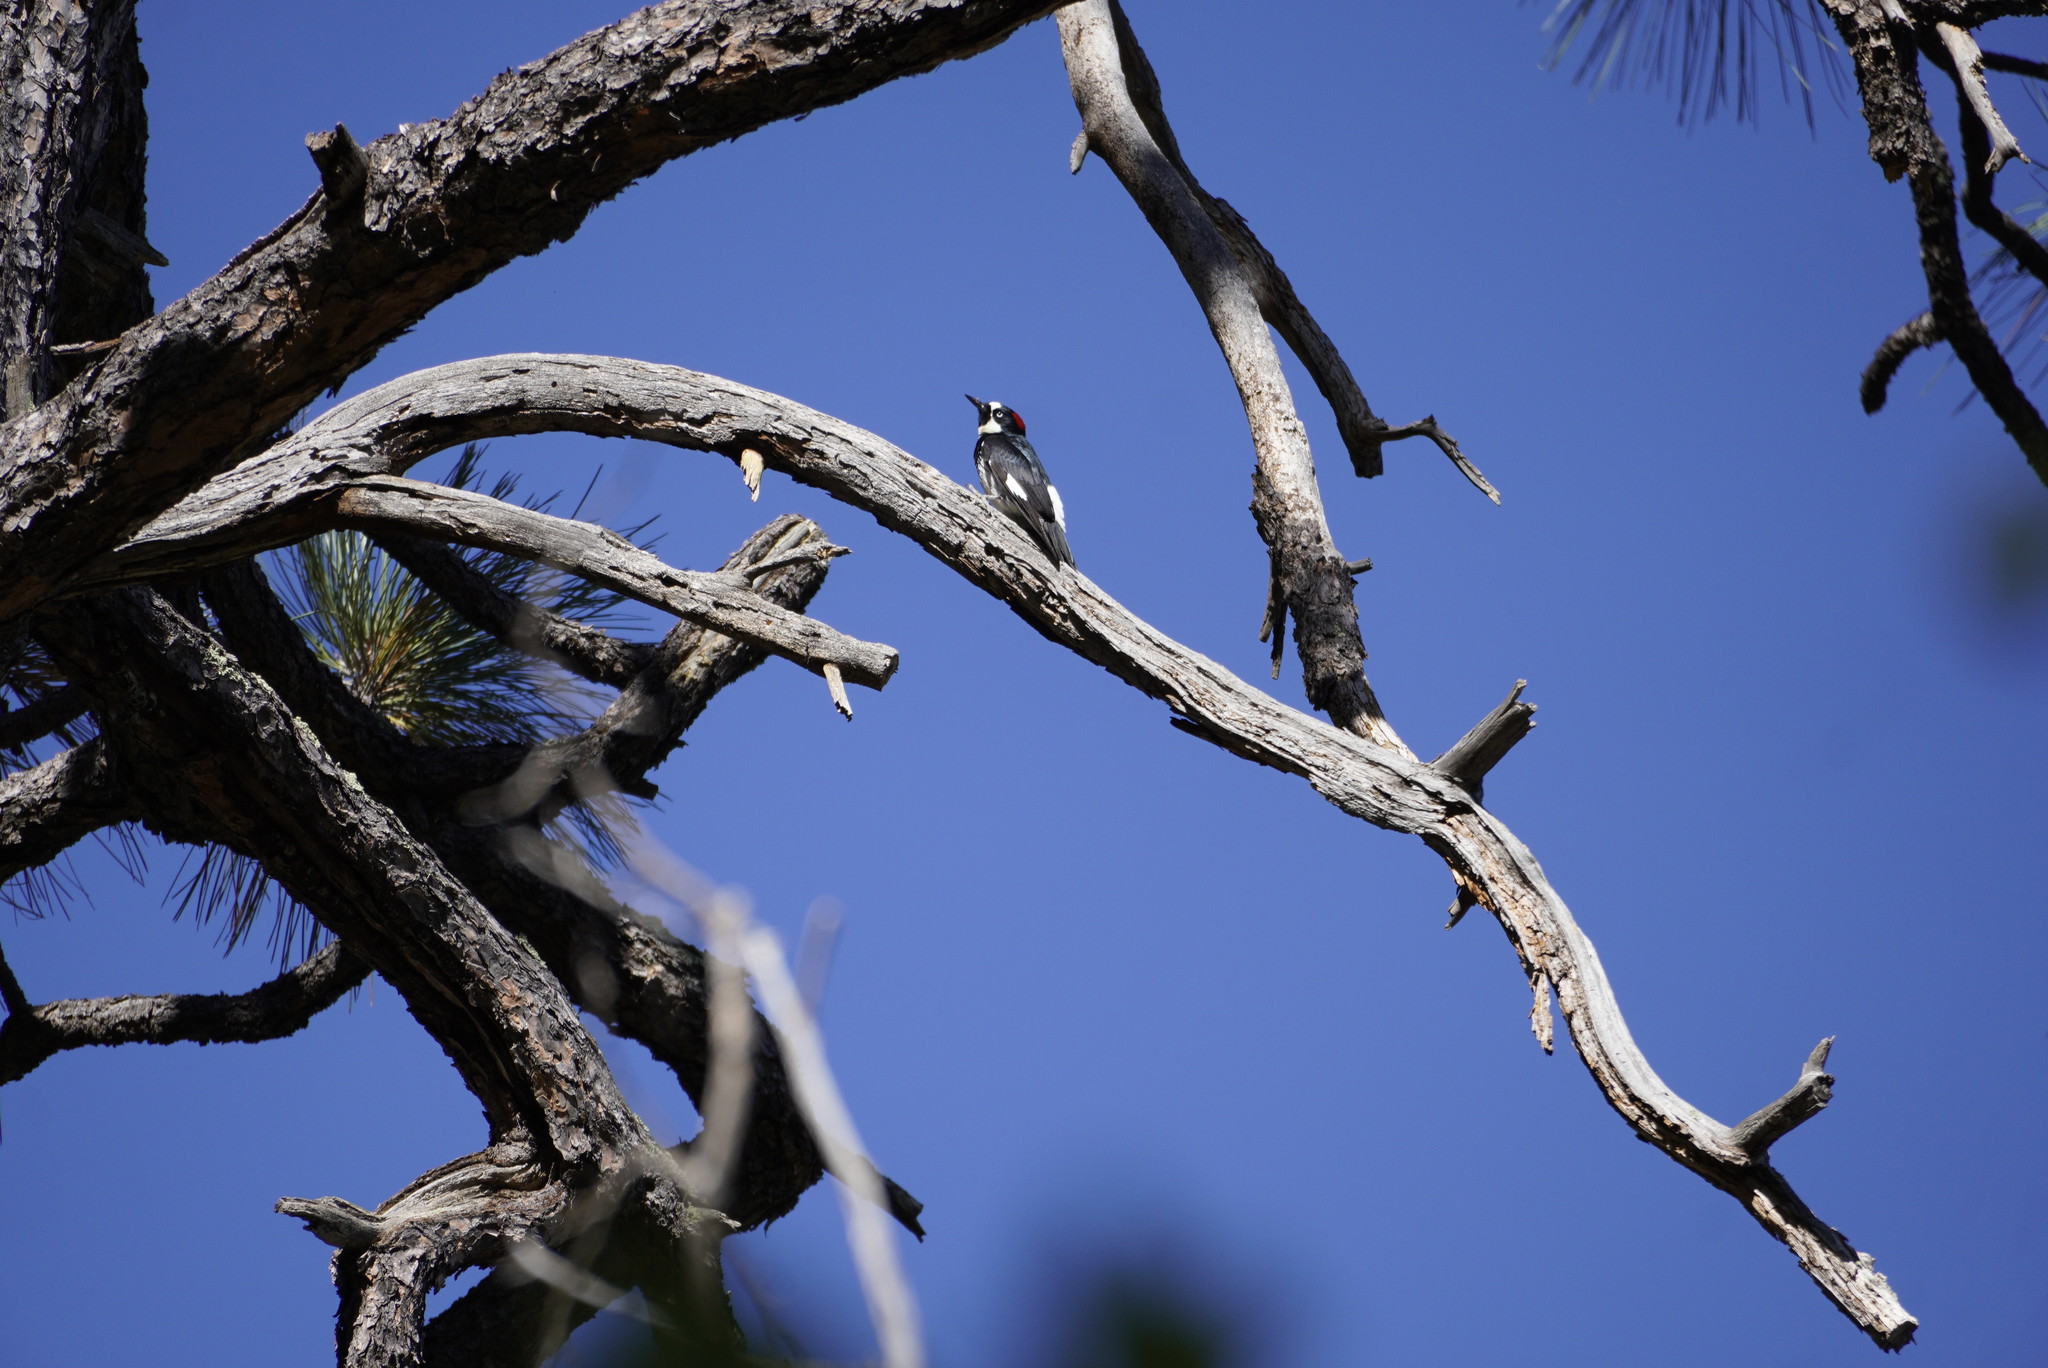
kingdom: Animalia
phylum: Chordata
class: Aves
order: Piciformes
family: Picidae
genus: Melanerpes
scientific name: Melanerpes formicivorus
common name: Acorn woodpecker
